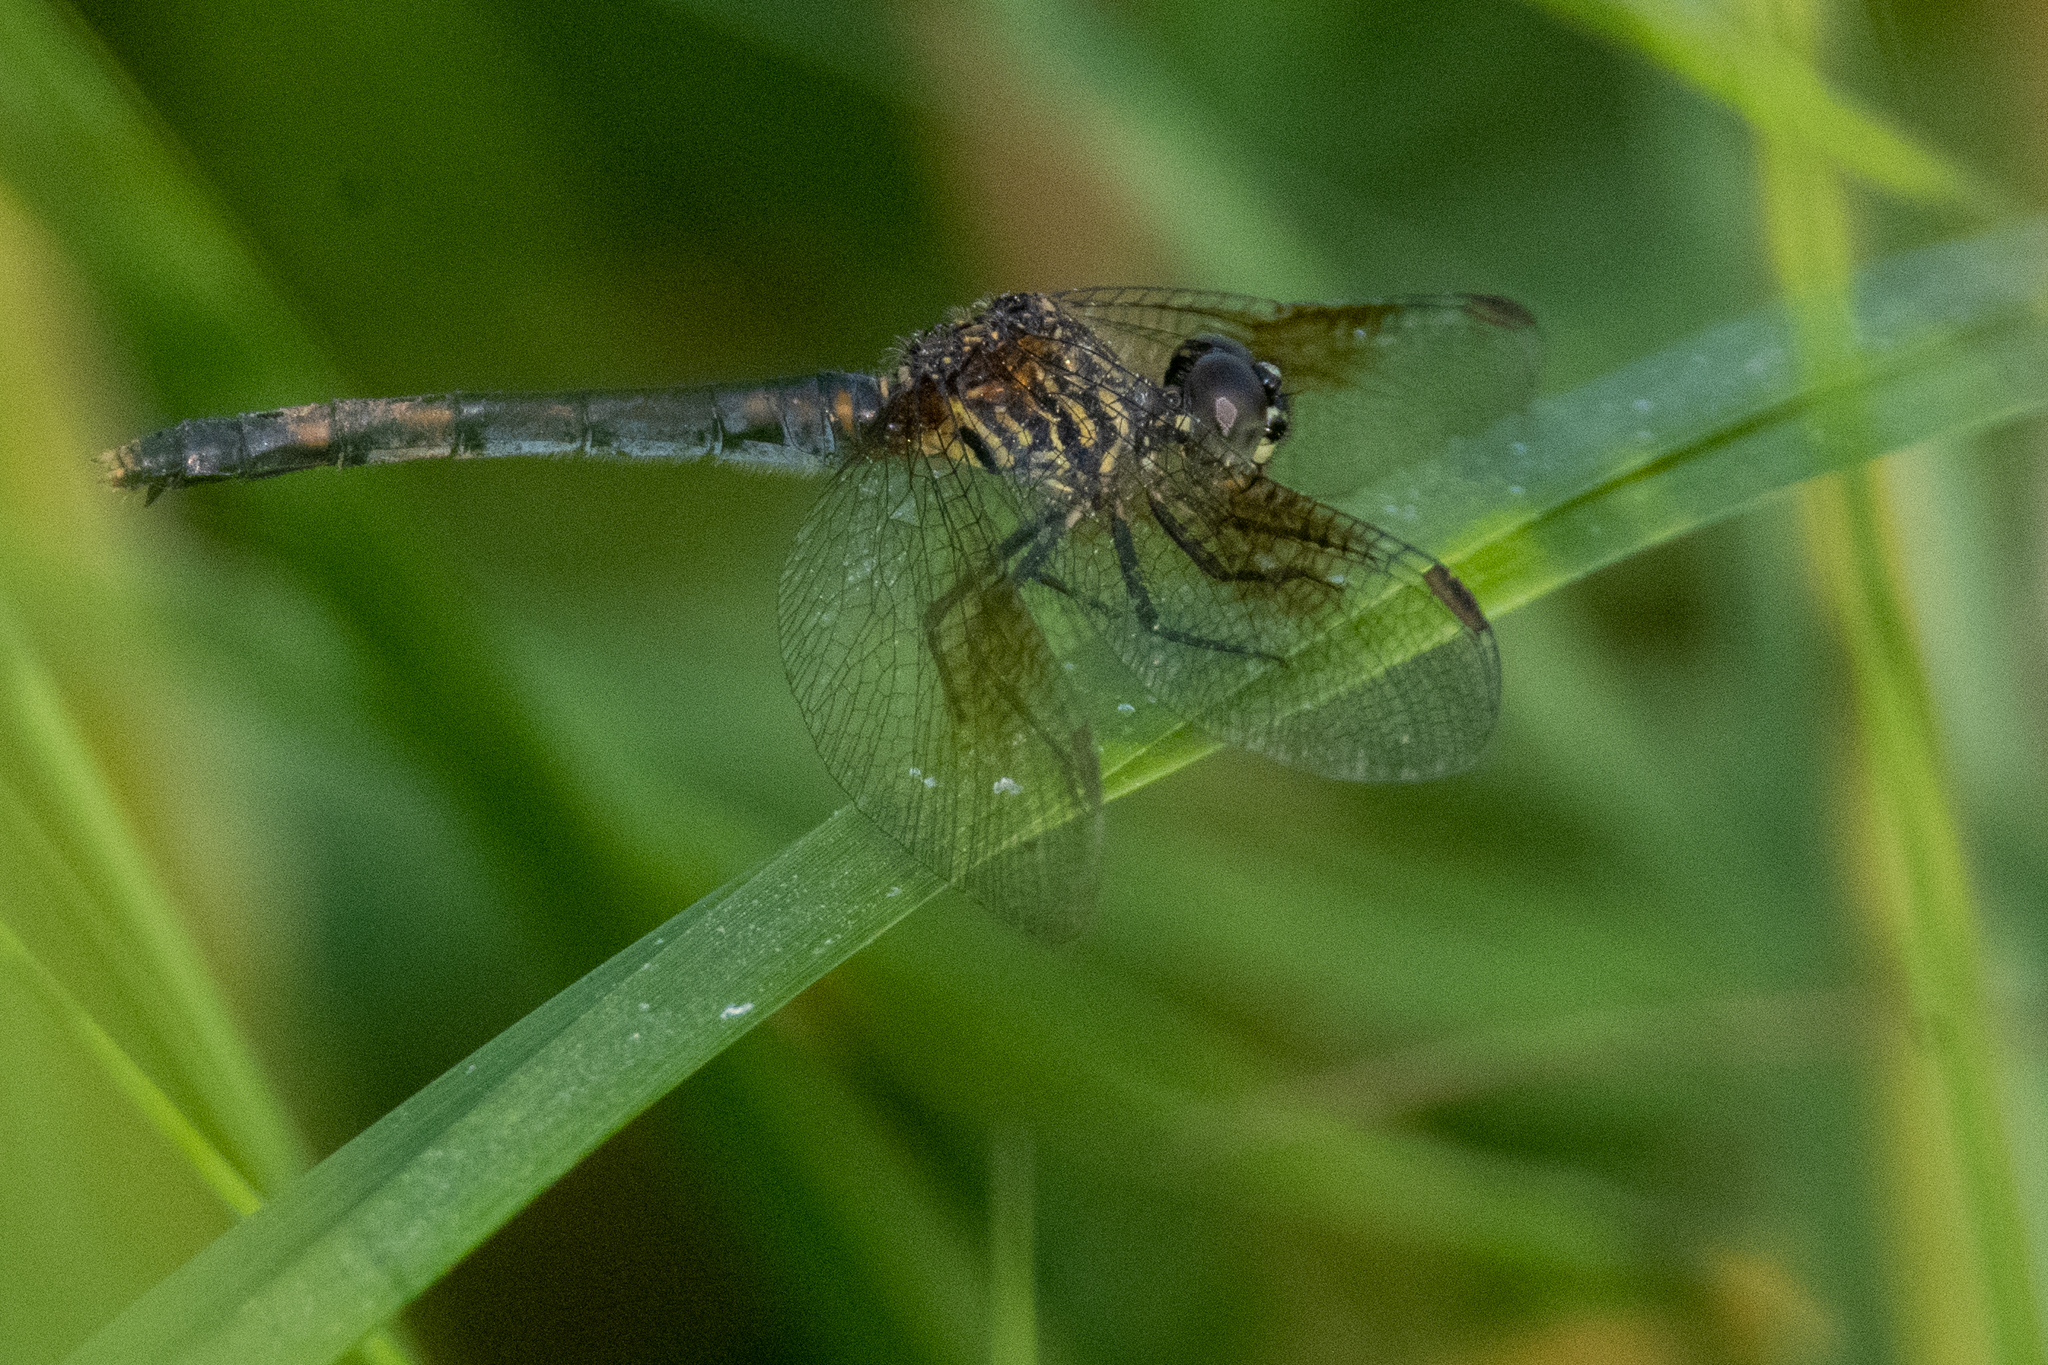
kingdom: Animalia
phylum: Arthropoda
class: Insecta
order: Odonata
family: Libellulidae
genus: Erythrodiplax
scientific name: Erythrodiplax berenice
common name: Seaside dragonlet
